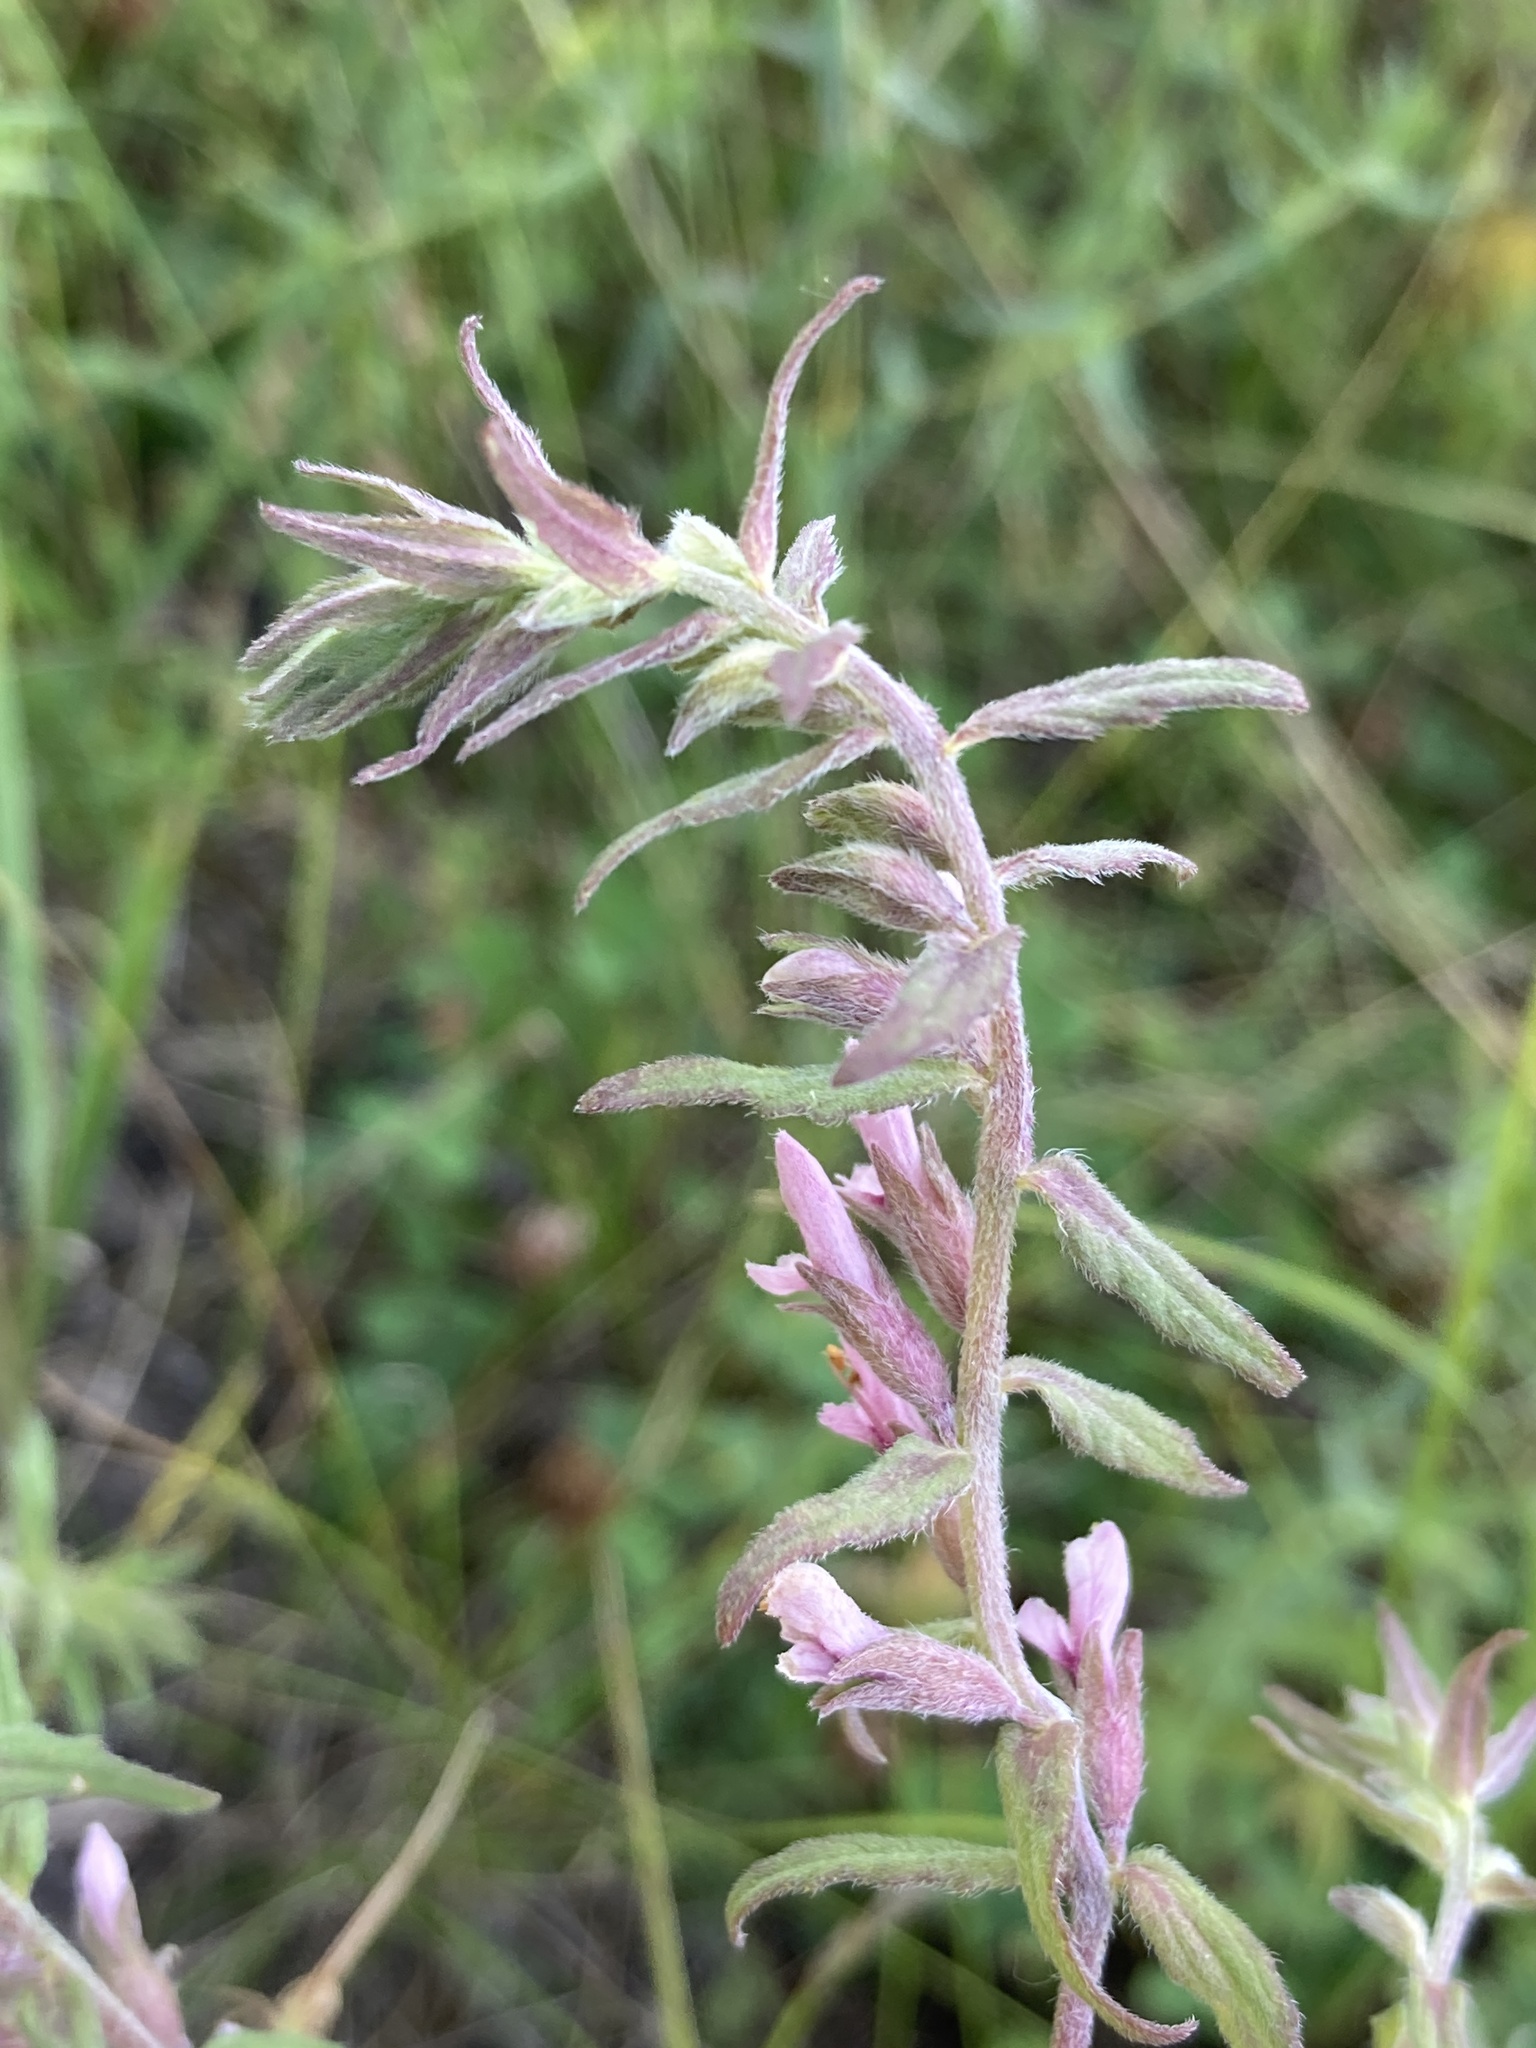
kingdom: Plantae
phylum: Tracheophyta
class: Magnoliopsida
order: Lamiales
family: Orobanchaceae
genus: Odontites
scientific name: Odontites vulgaris
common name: Broomrape
